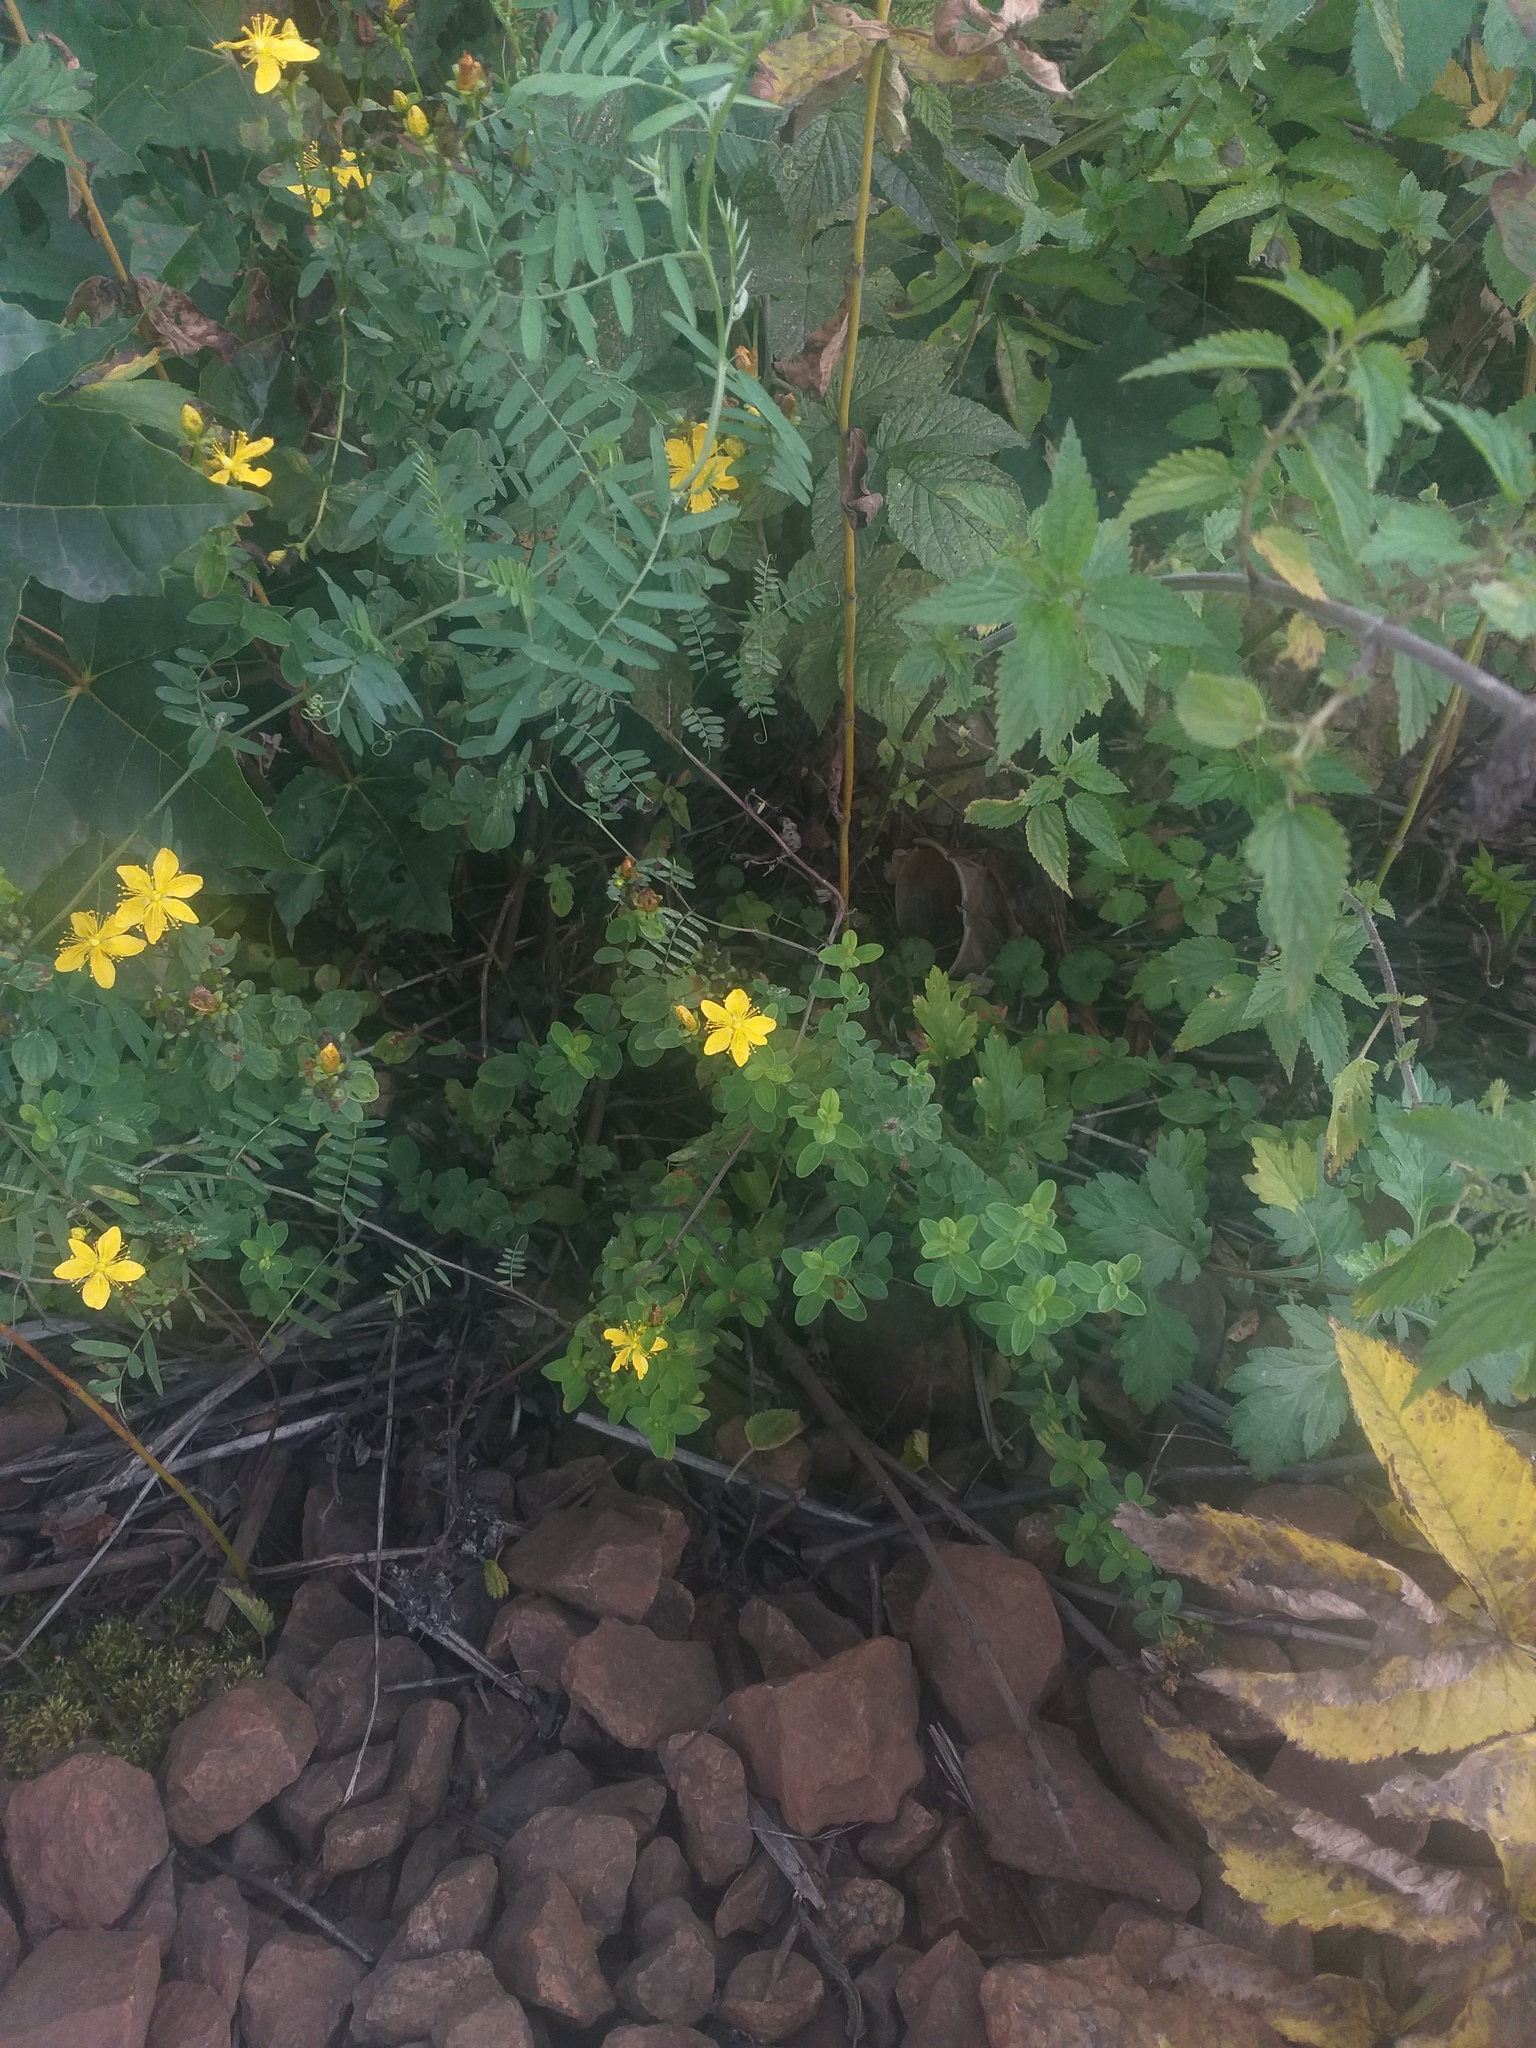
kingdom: Plantae
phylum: Tracheophyta
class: Magnoliopsida
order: Malpighiales
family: Hypericaceae
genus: Hypericum
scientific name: Hypericum maculatum
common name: Imperforate st. john's-wort
